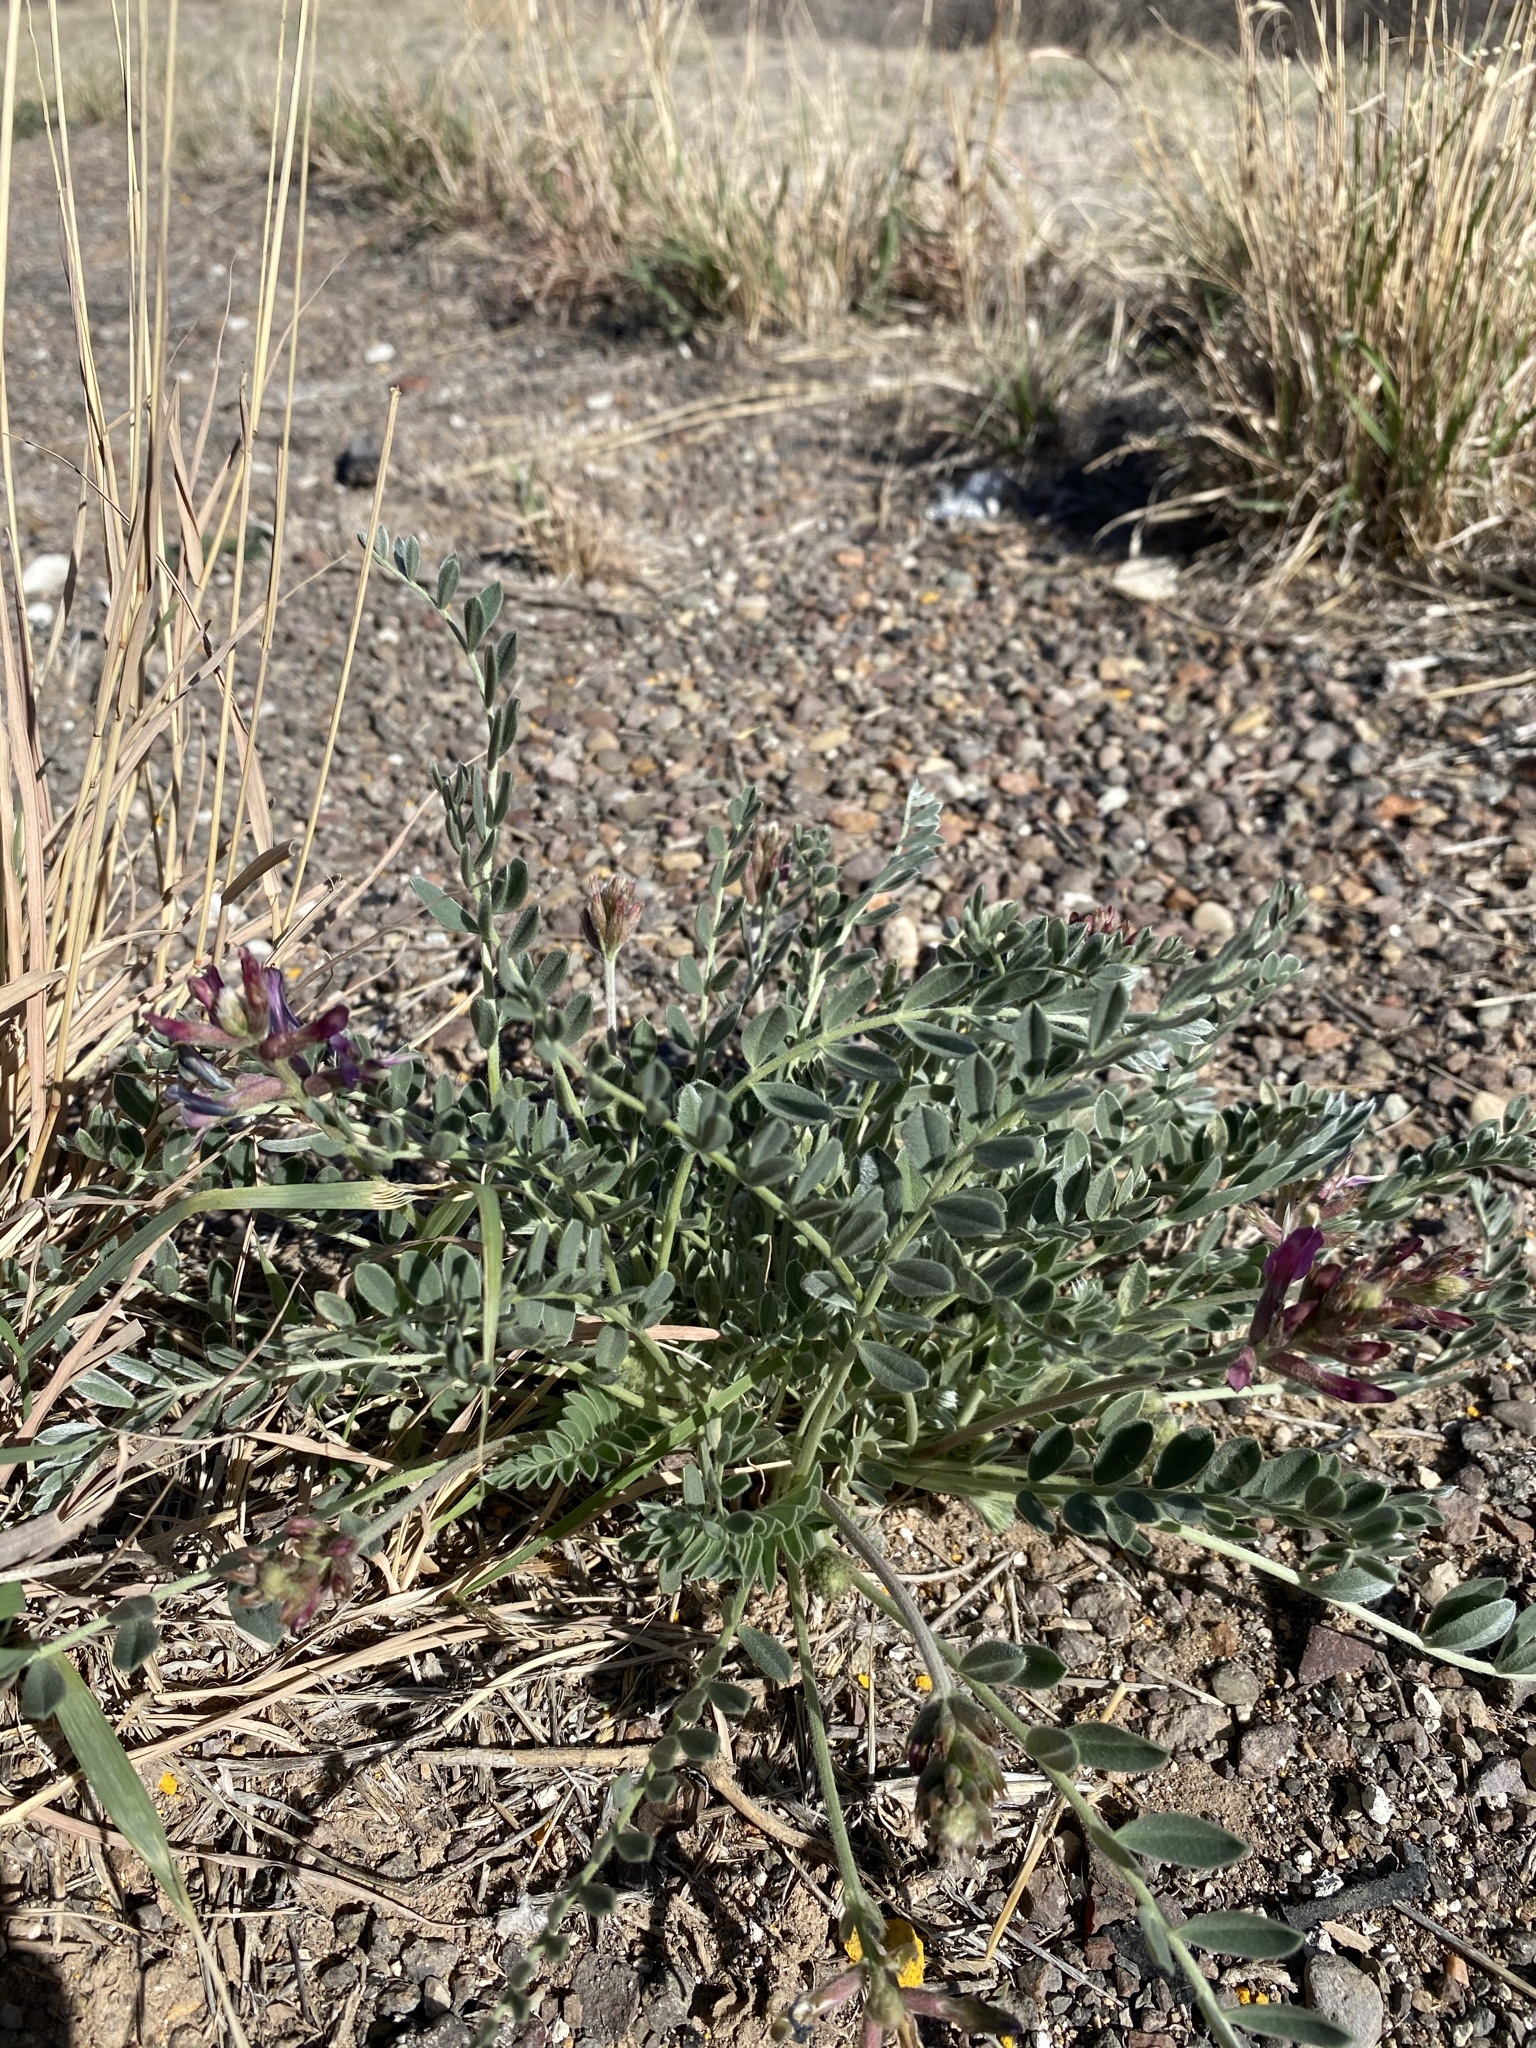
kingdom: Plantae
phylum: Tracheophyta
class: Magnoliopsida
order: Fabales
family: Fabaceae
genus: Astragalus
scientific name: Astragalus mollissimus
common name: Woolly locoweed
